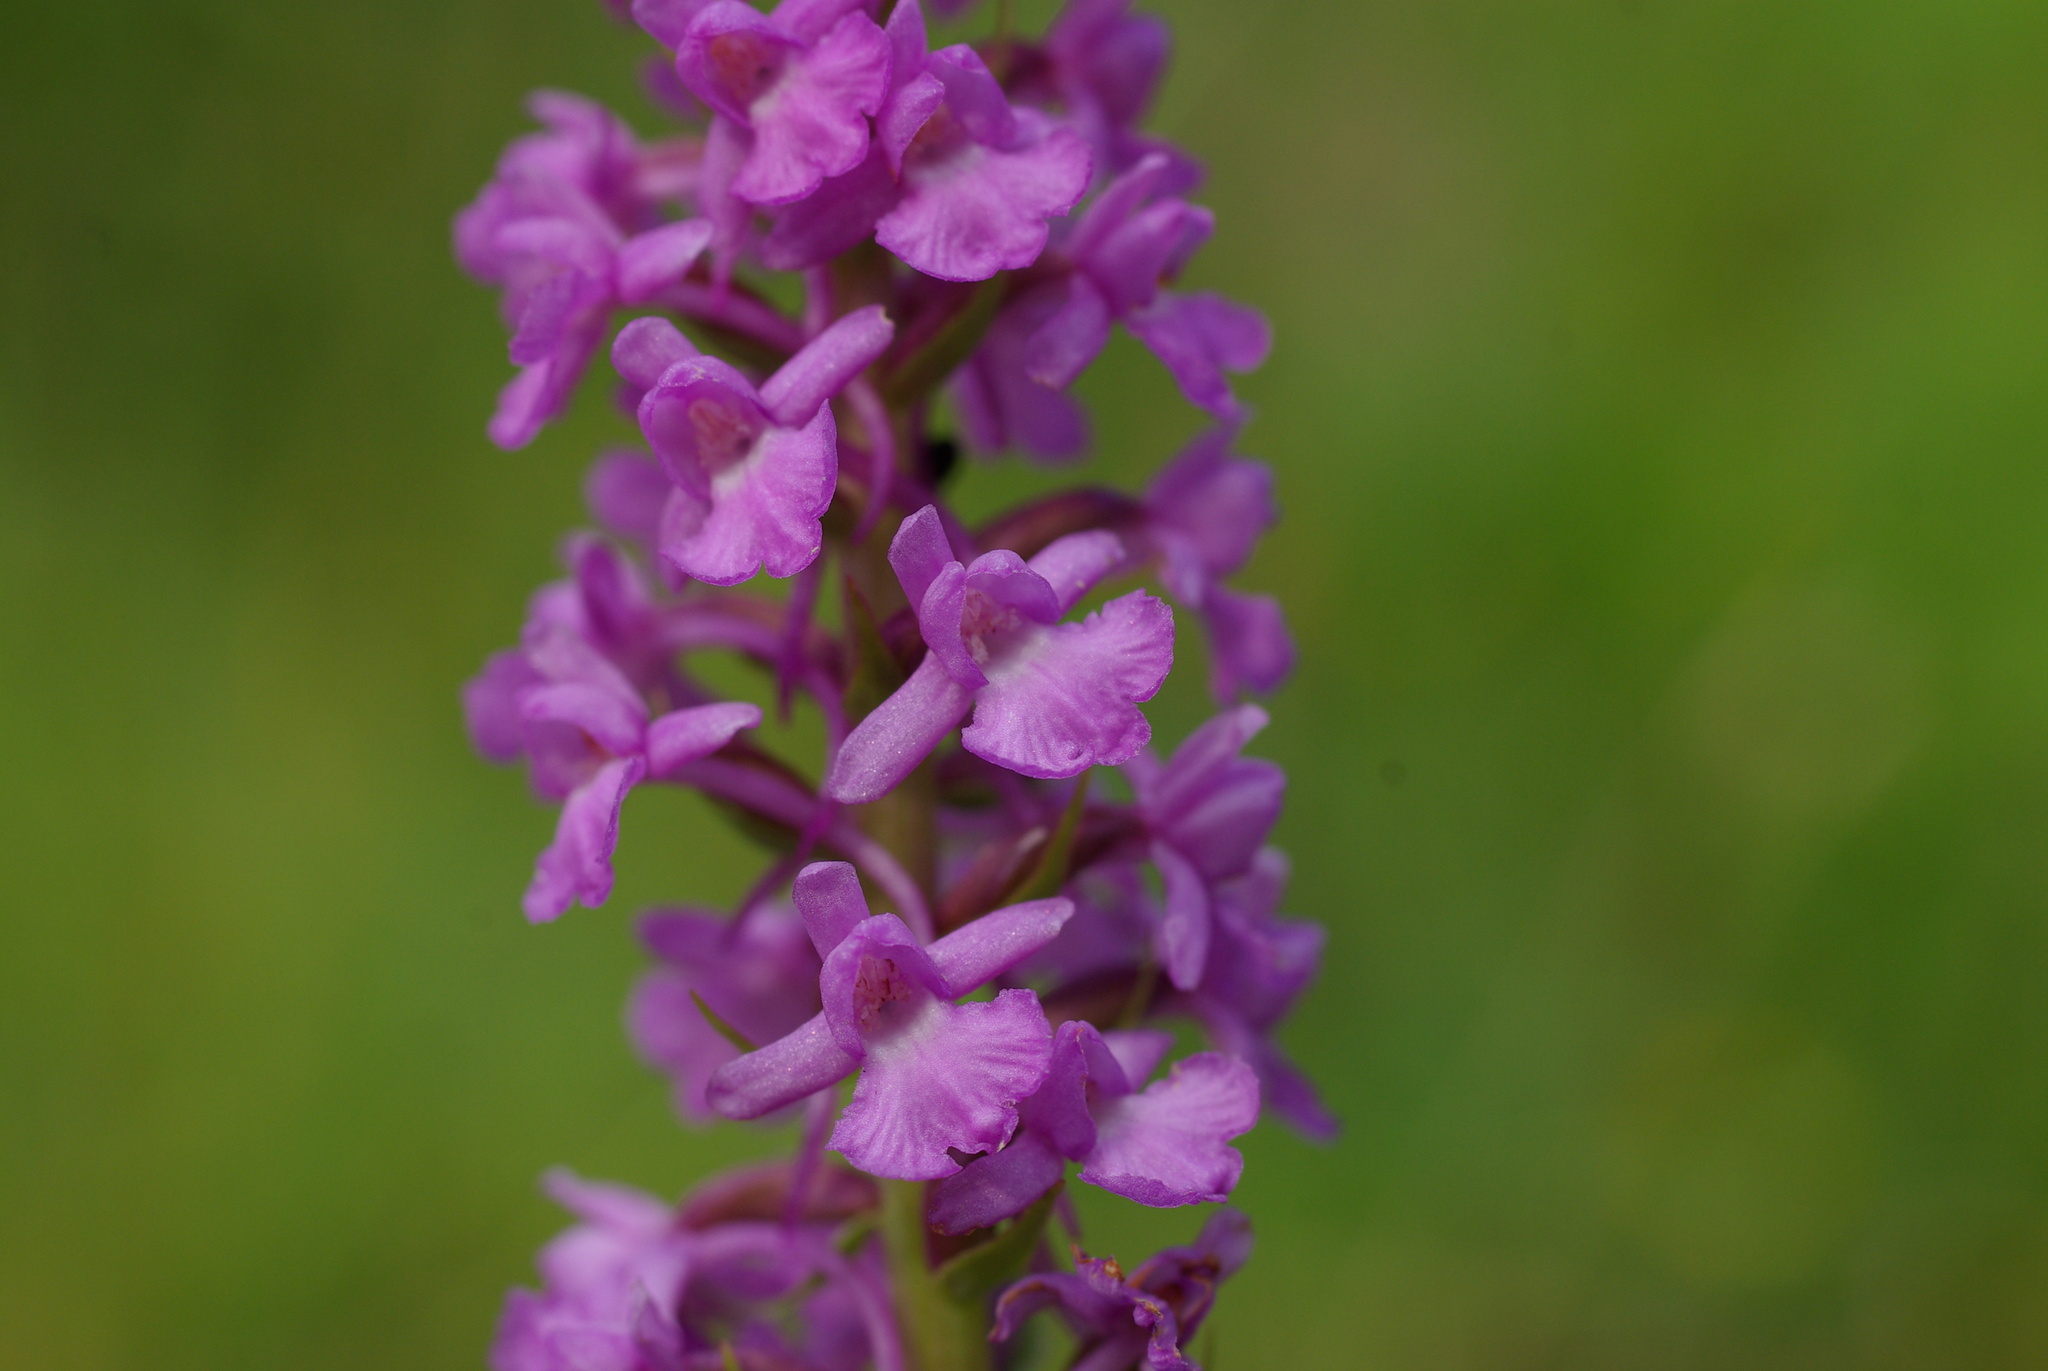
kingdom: Plantae
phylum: Tracheophyta
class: Liliopsida
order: Asparagales
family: Orchidaceae
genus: Gymnadenia
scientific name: Gymnadenia densiflora
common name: Marsh fragrant-orchid
